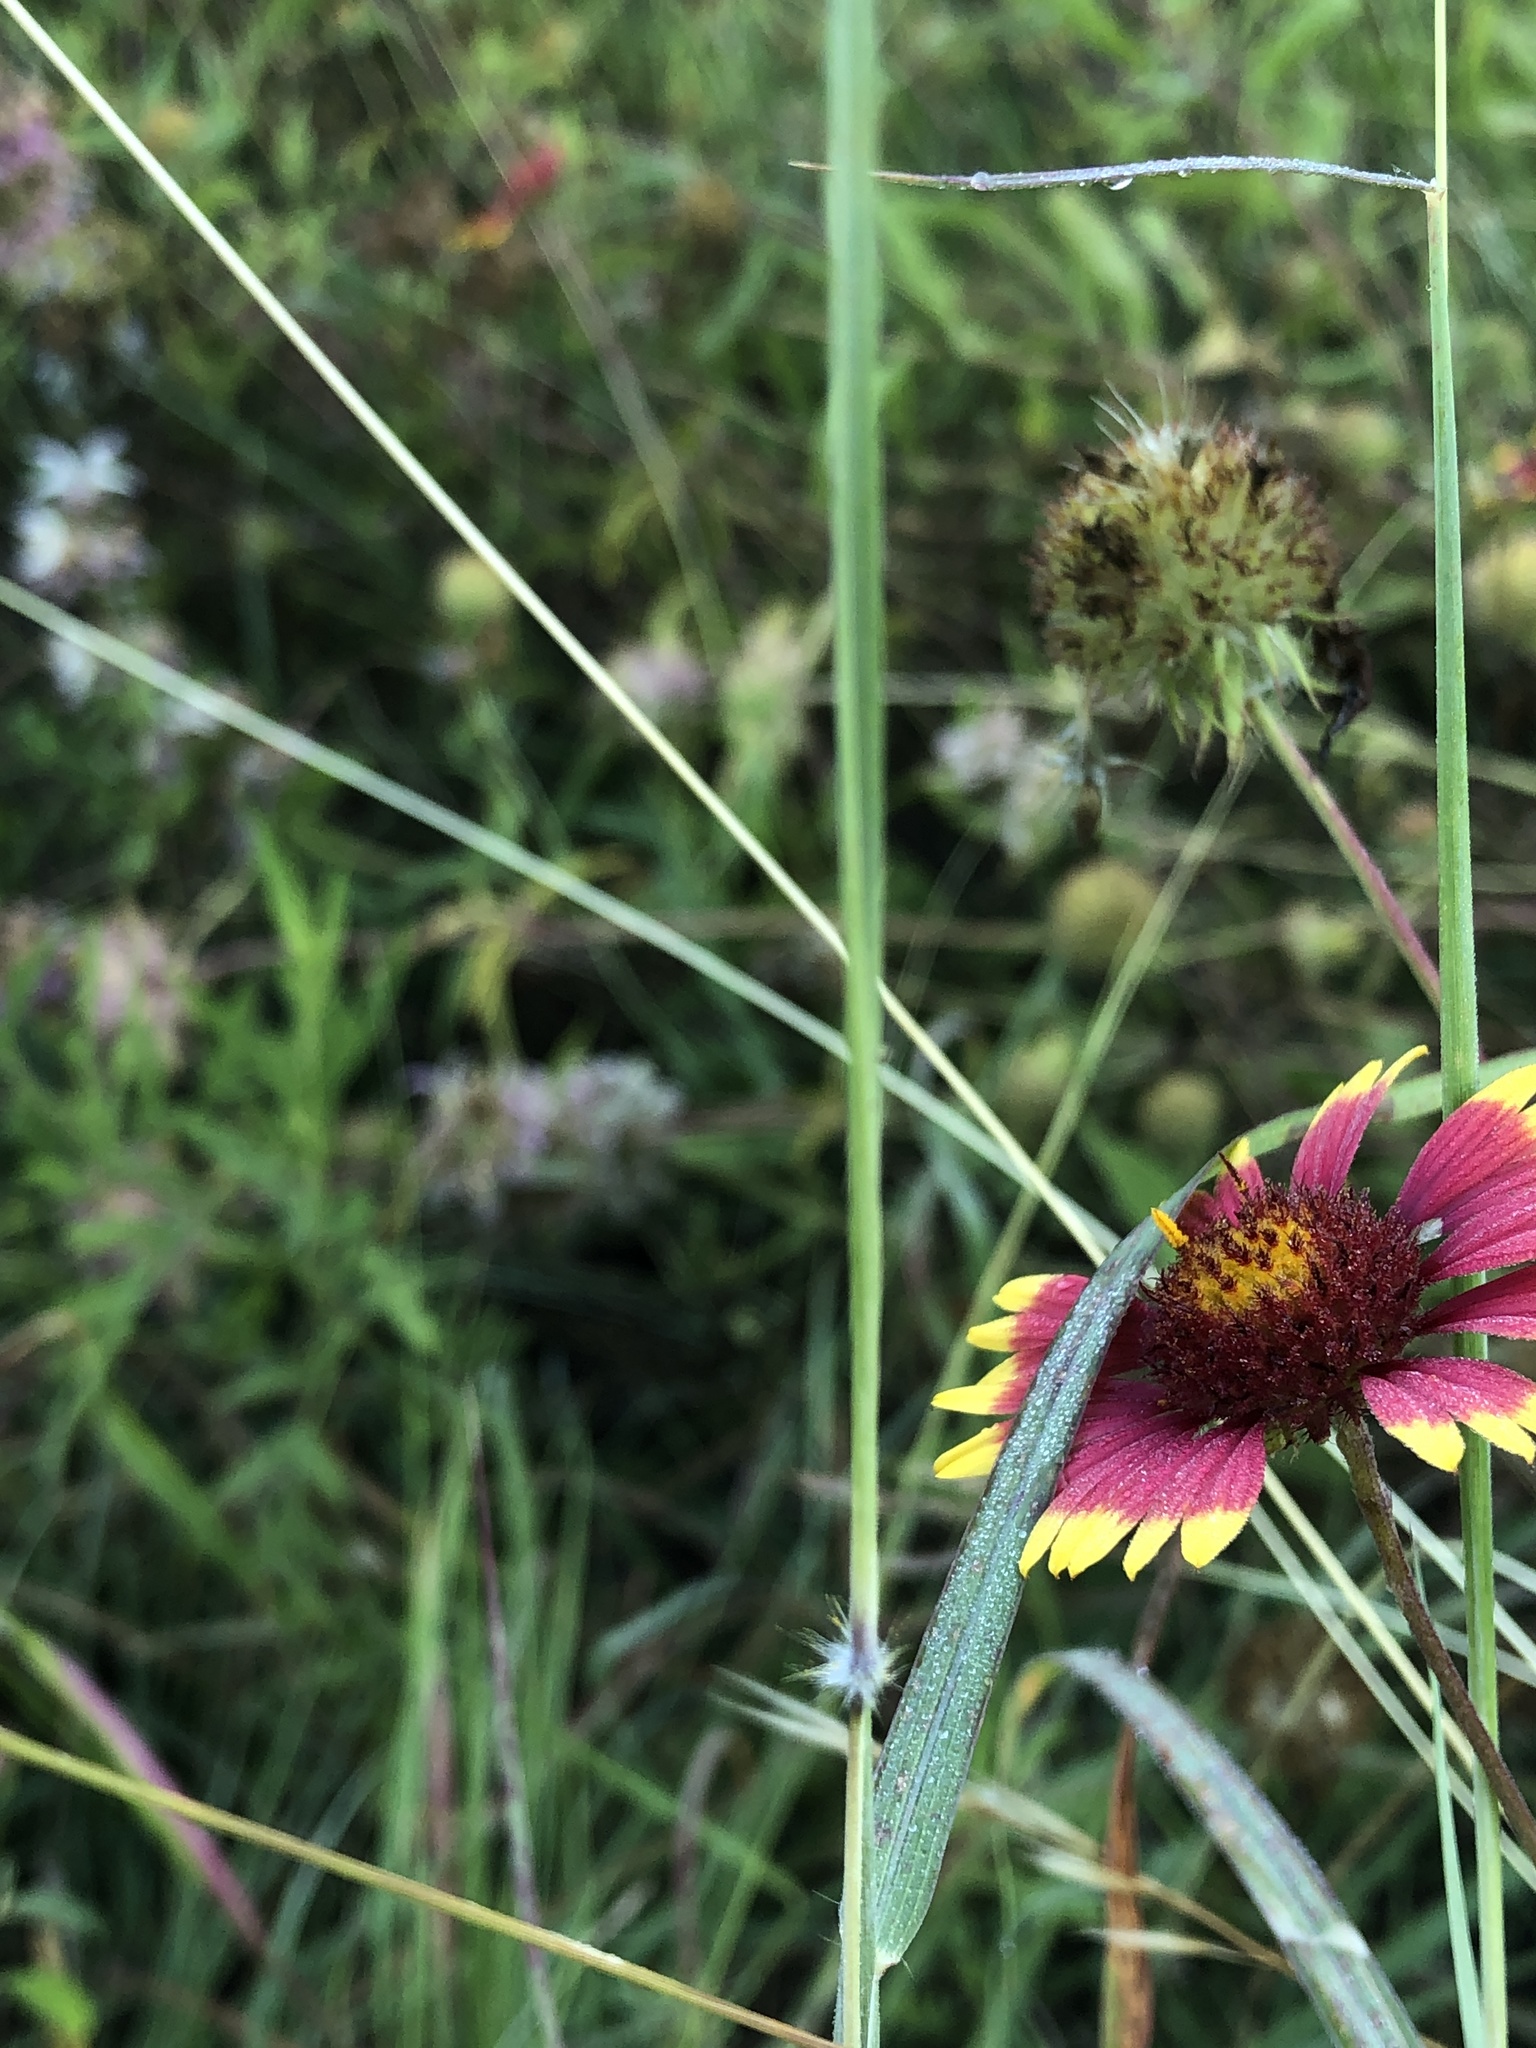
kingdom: Plantae
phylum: Tracheophyta
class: Liliopsida
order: Poales
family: Poaceae
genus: Dichanthium
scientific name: Dichanthium sericeum
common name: Silky bluestem
